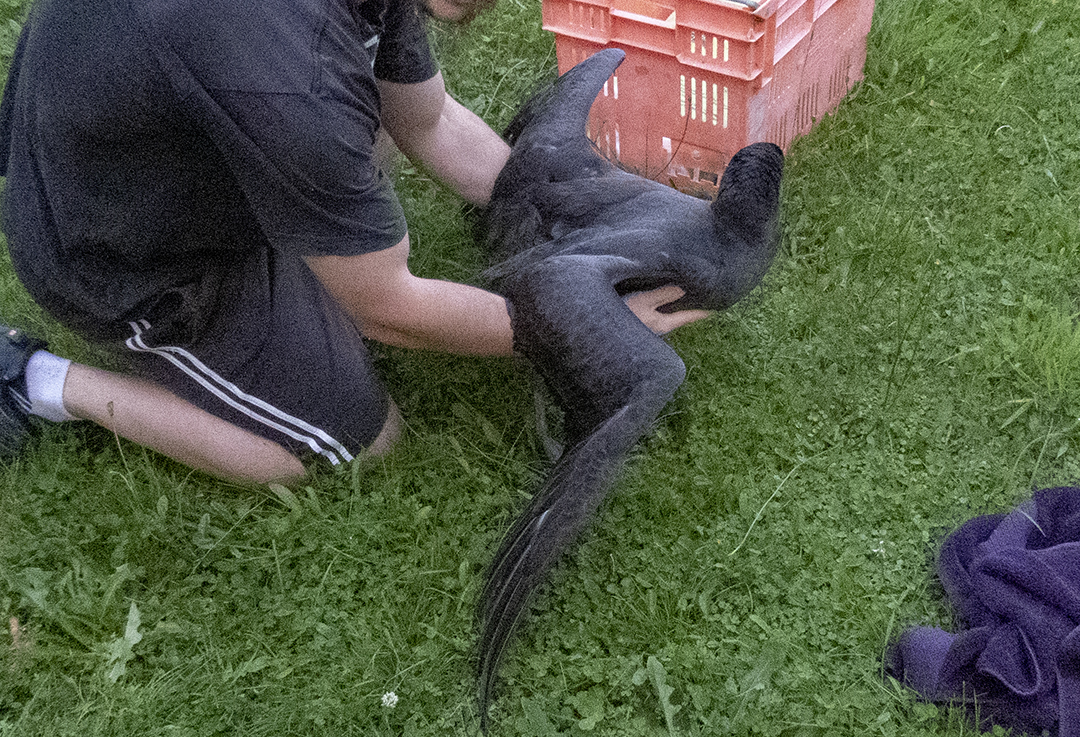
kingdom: Animalia
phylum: Chordata
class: Aves
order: Procellariiformes
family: Procellariidae
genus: Macronectes
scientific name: Macronectes halli
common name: Northern giant petrel
